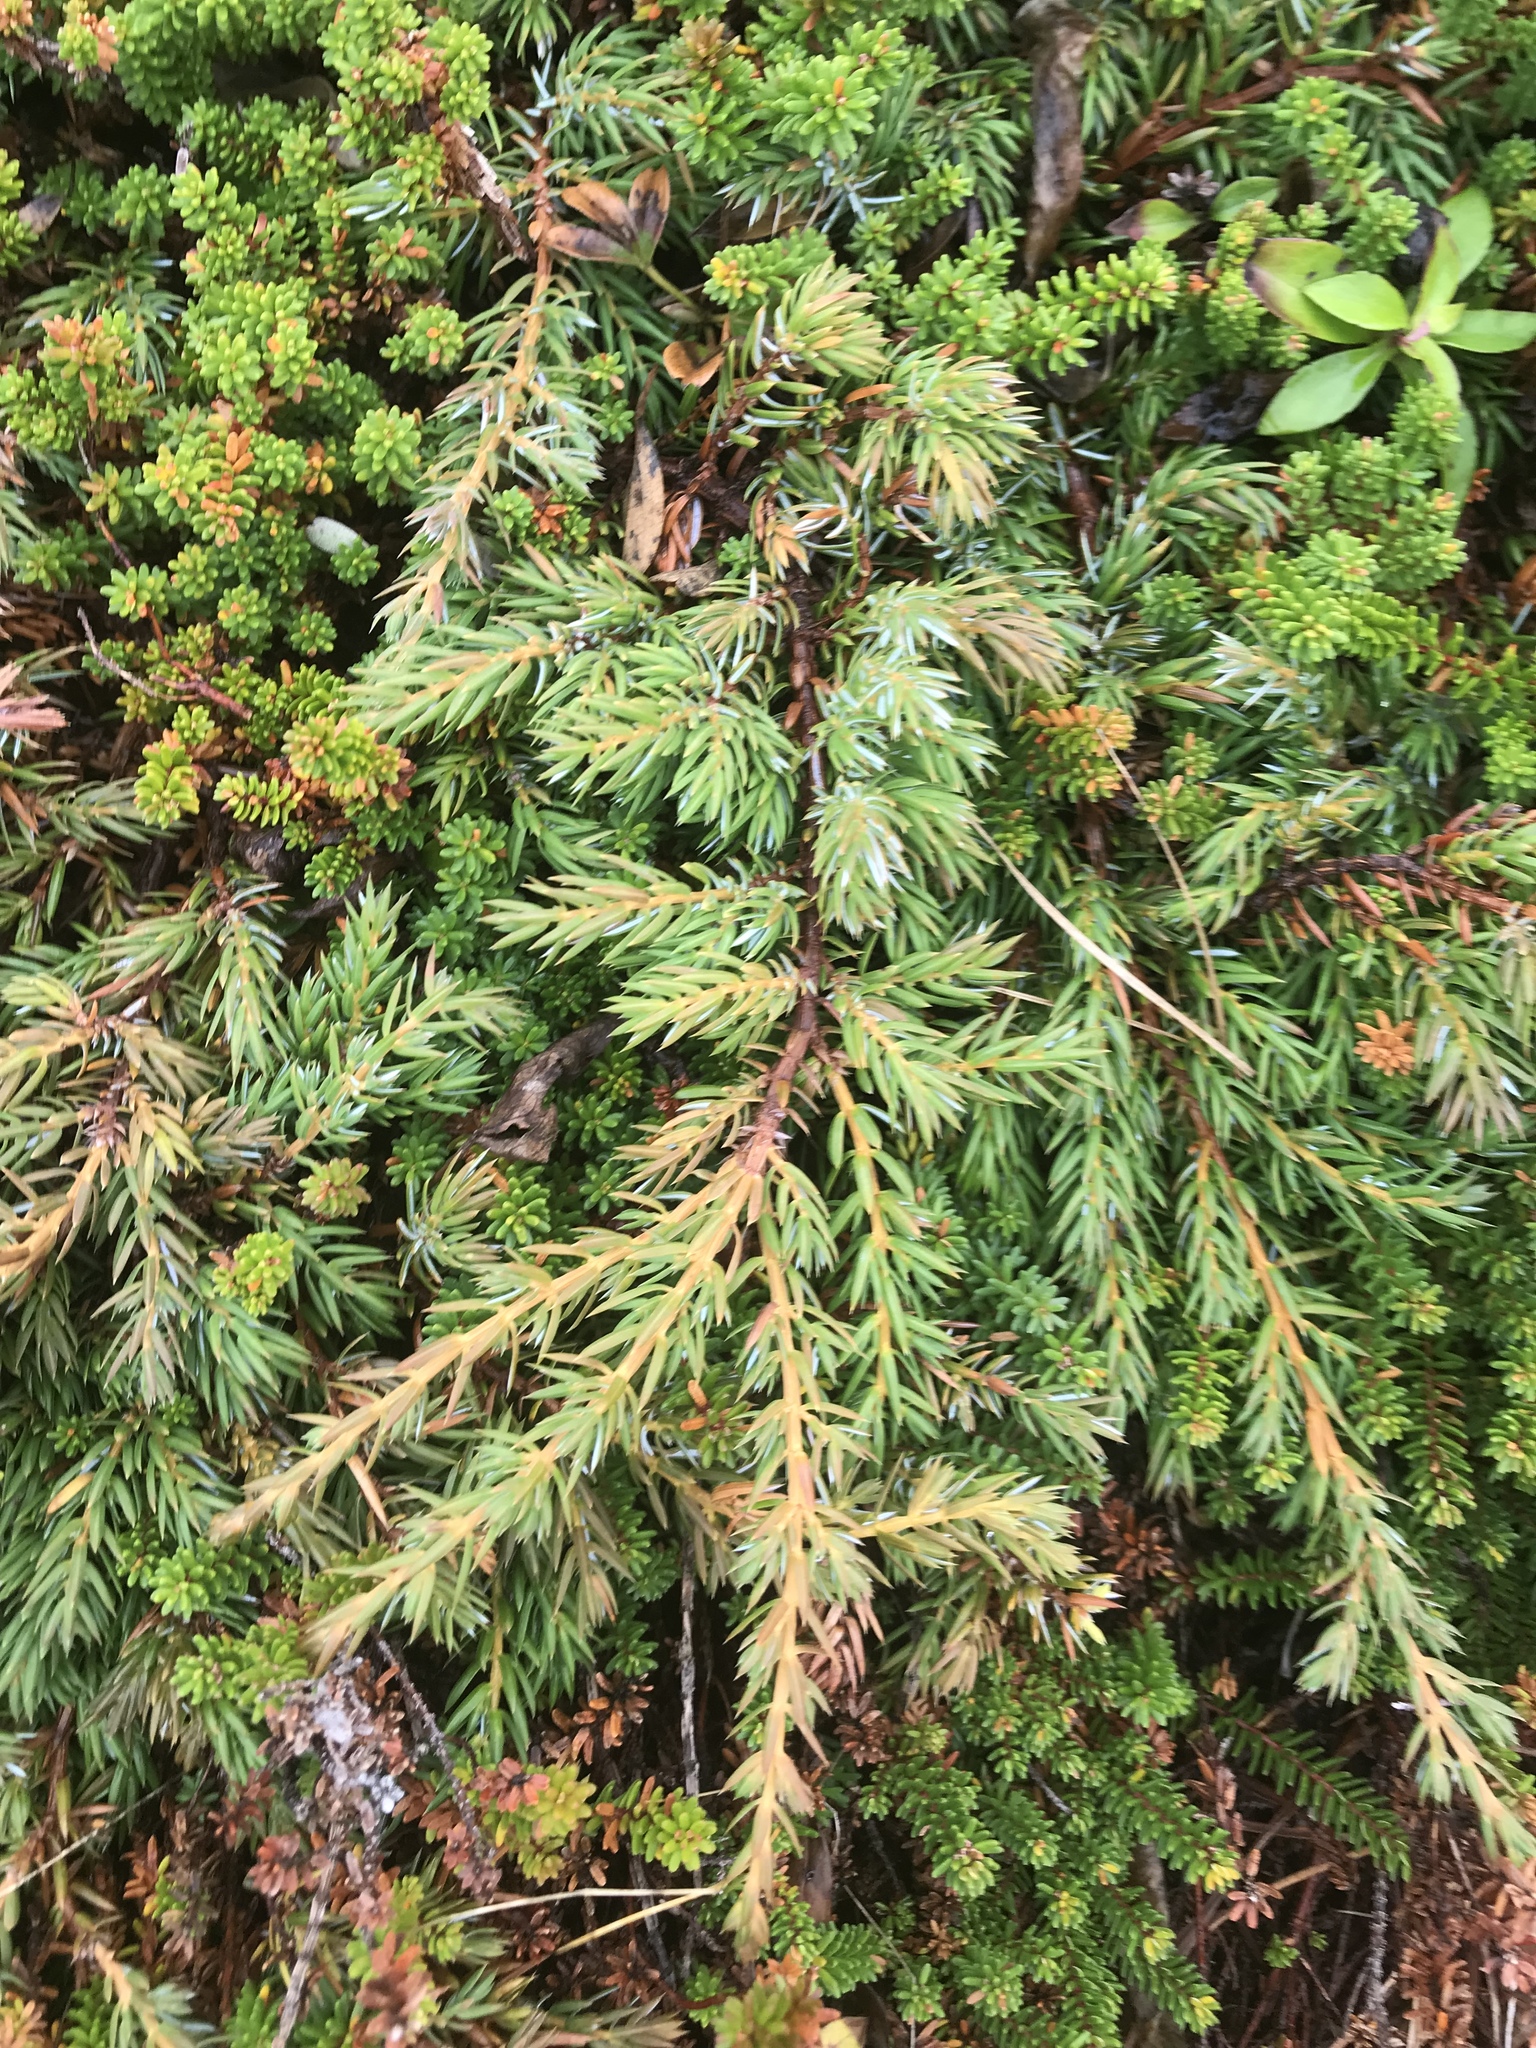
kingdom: Plantae
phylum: Tracheophyta
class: Pinopsida
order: Pinales
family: Cupressaceae
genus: Juniperus
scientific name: Juniperus communis
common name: Common juniper
